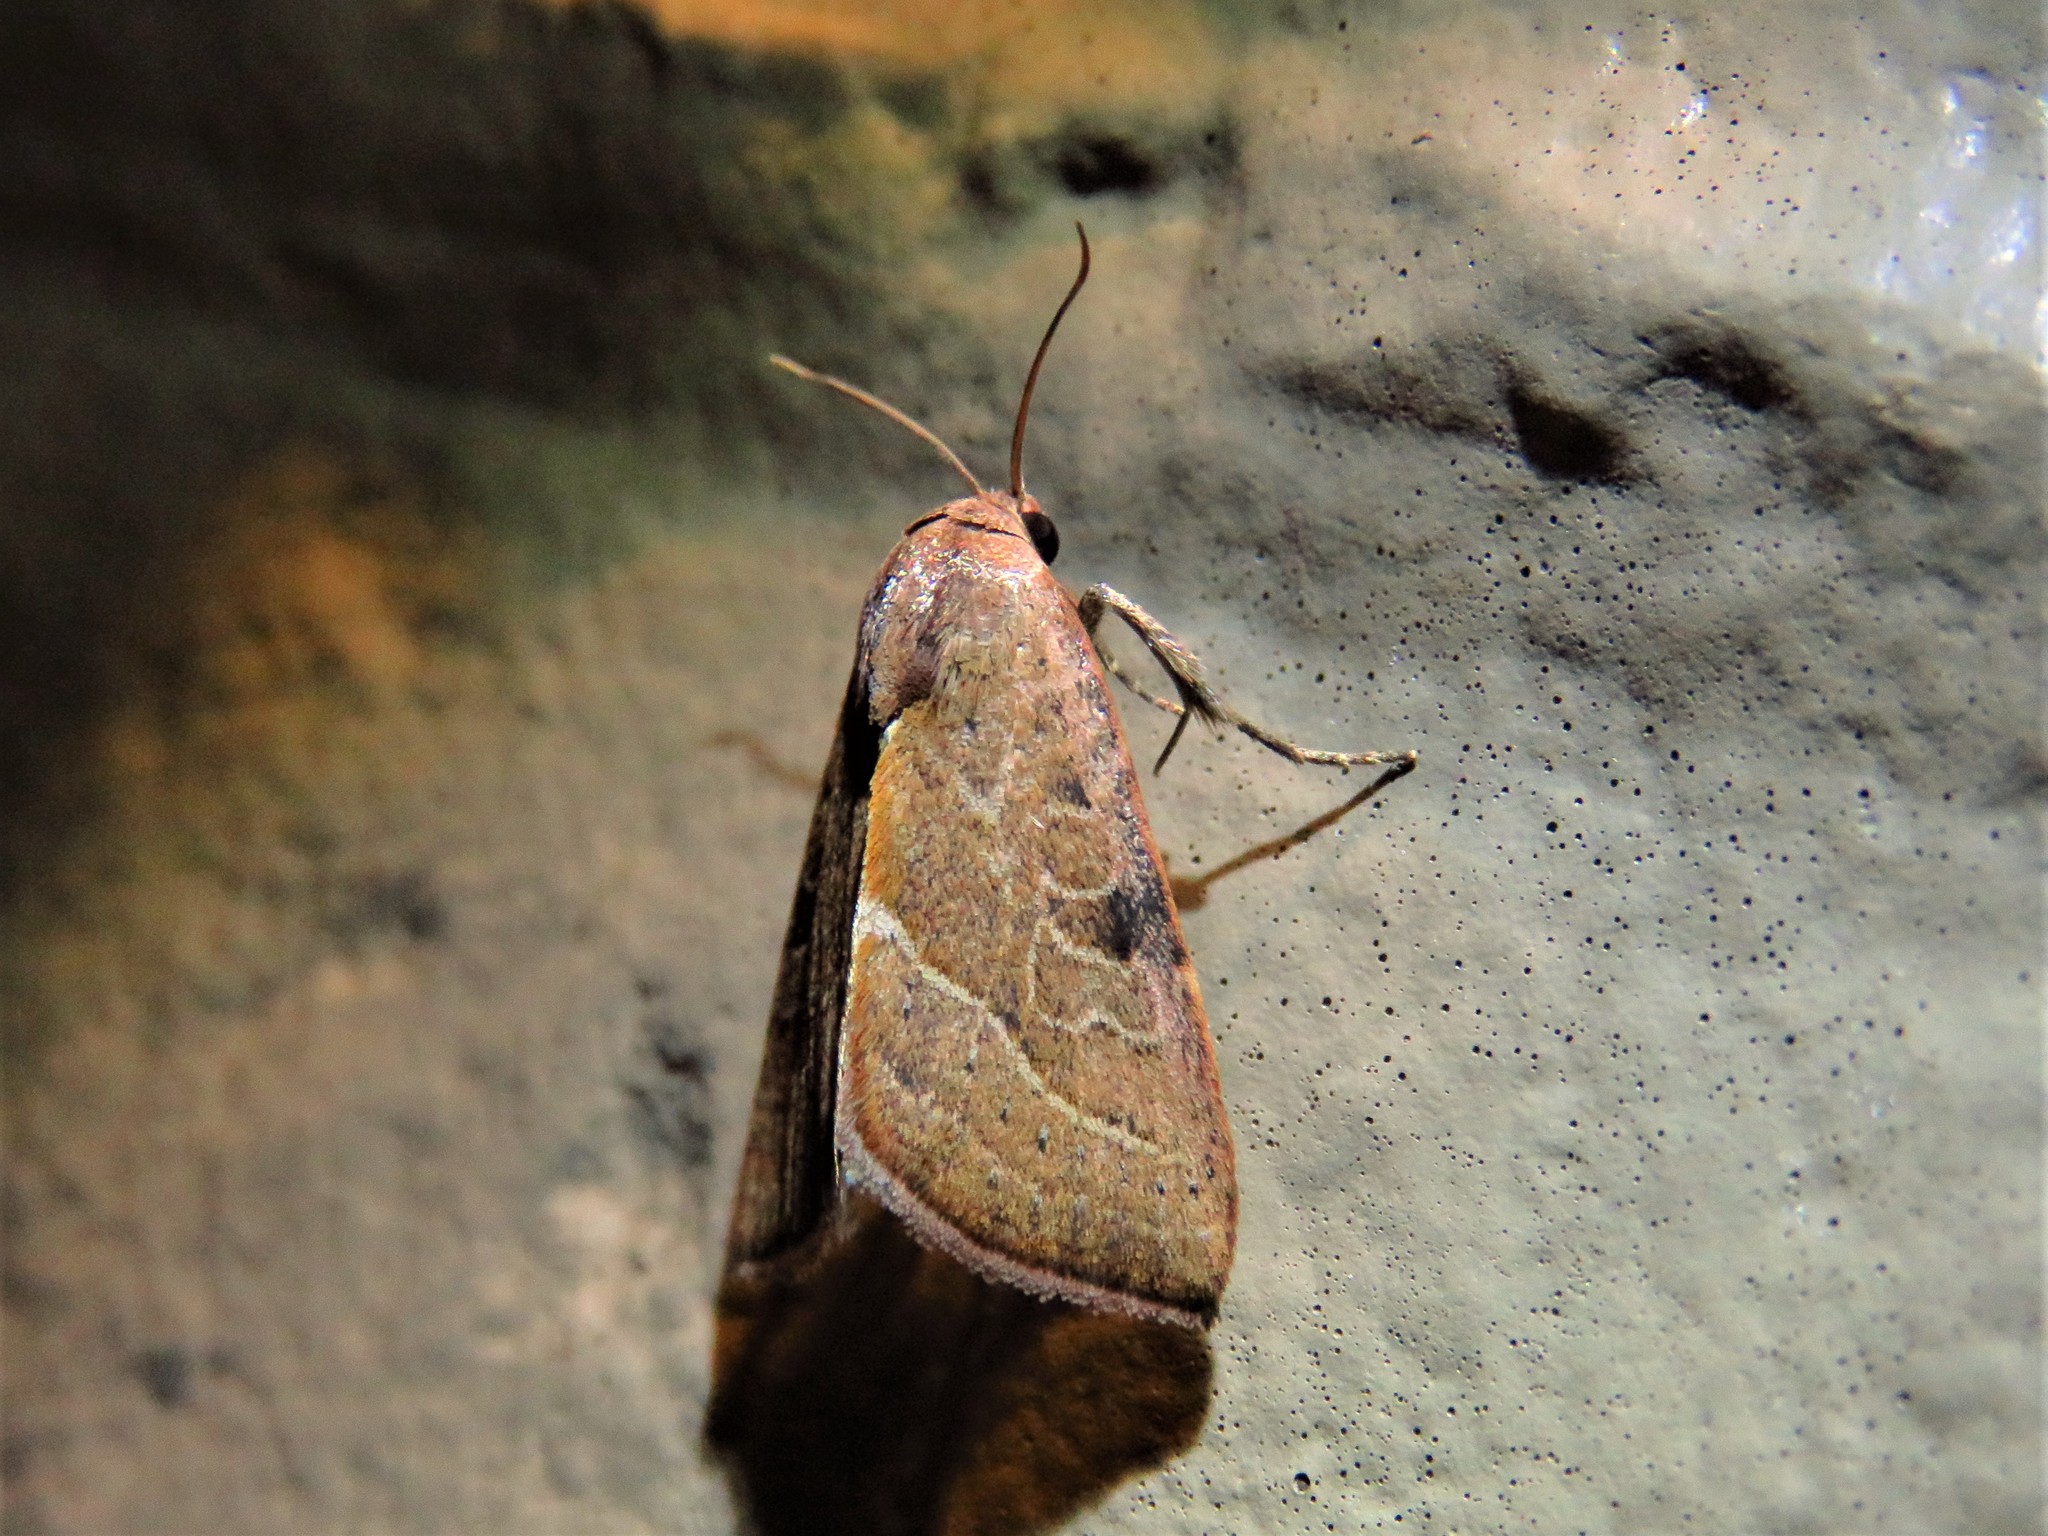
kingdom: Animalia
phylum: Arthropoda
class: Insecta
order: Lepidoptera
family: Noctuidae
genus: Galgula
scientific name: Galgula partita
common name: Wedgeling
